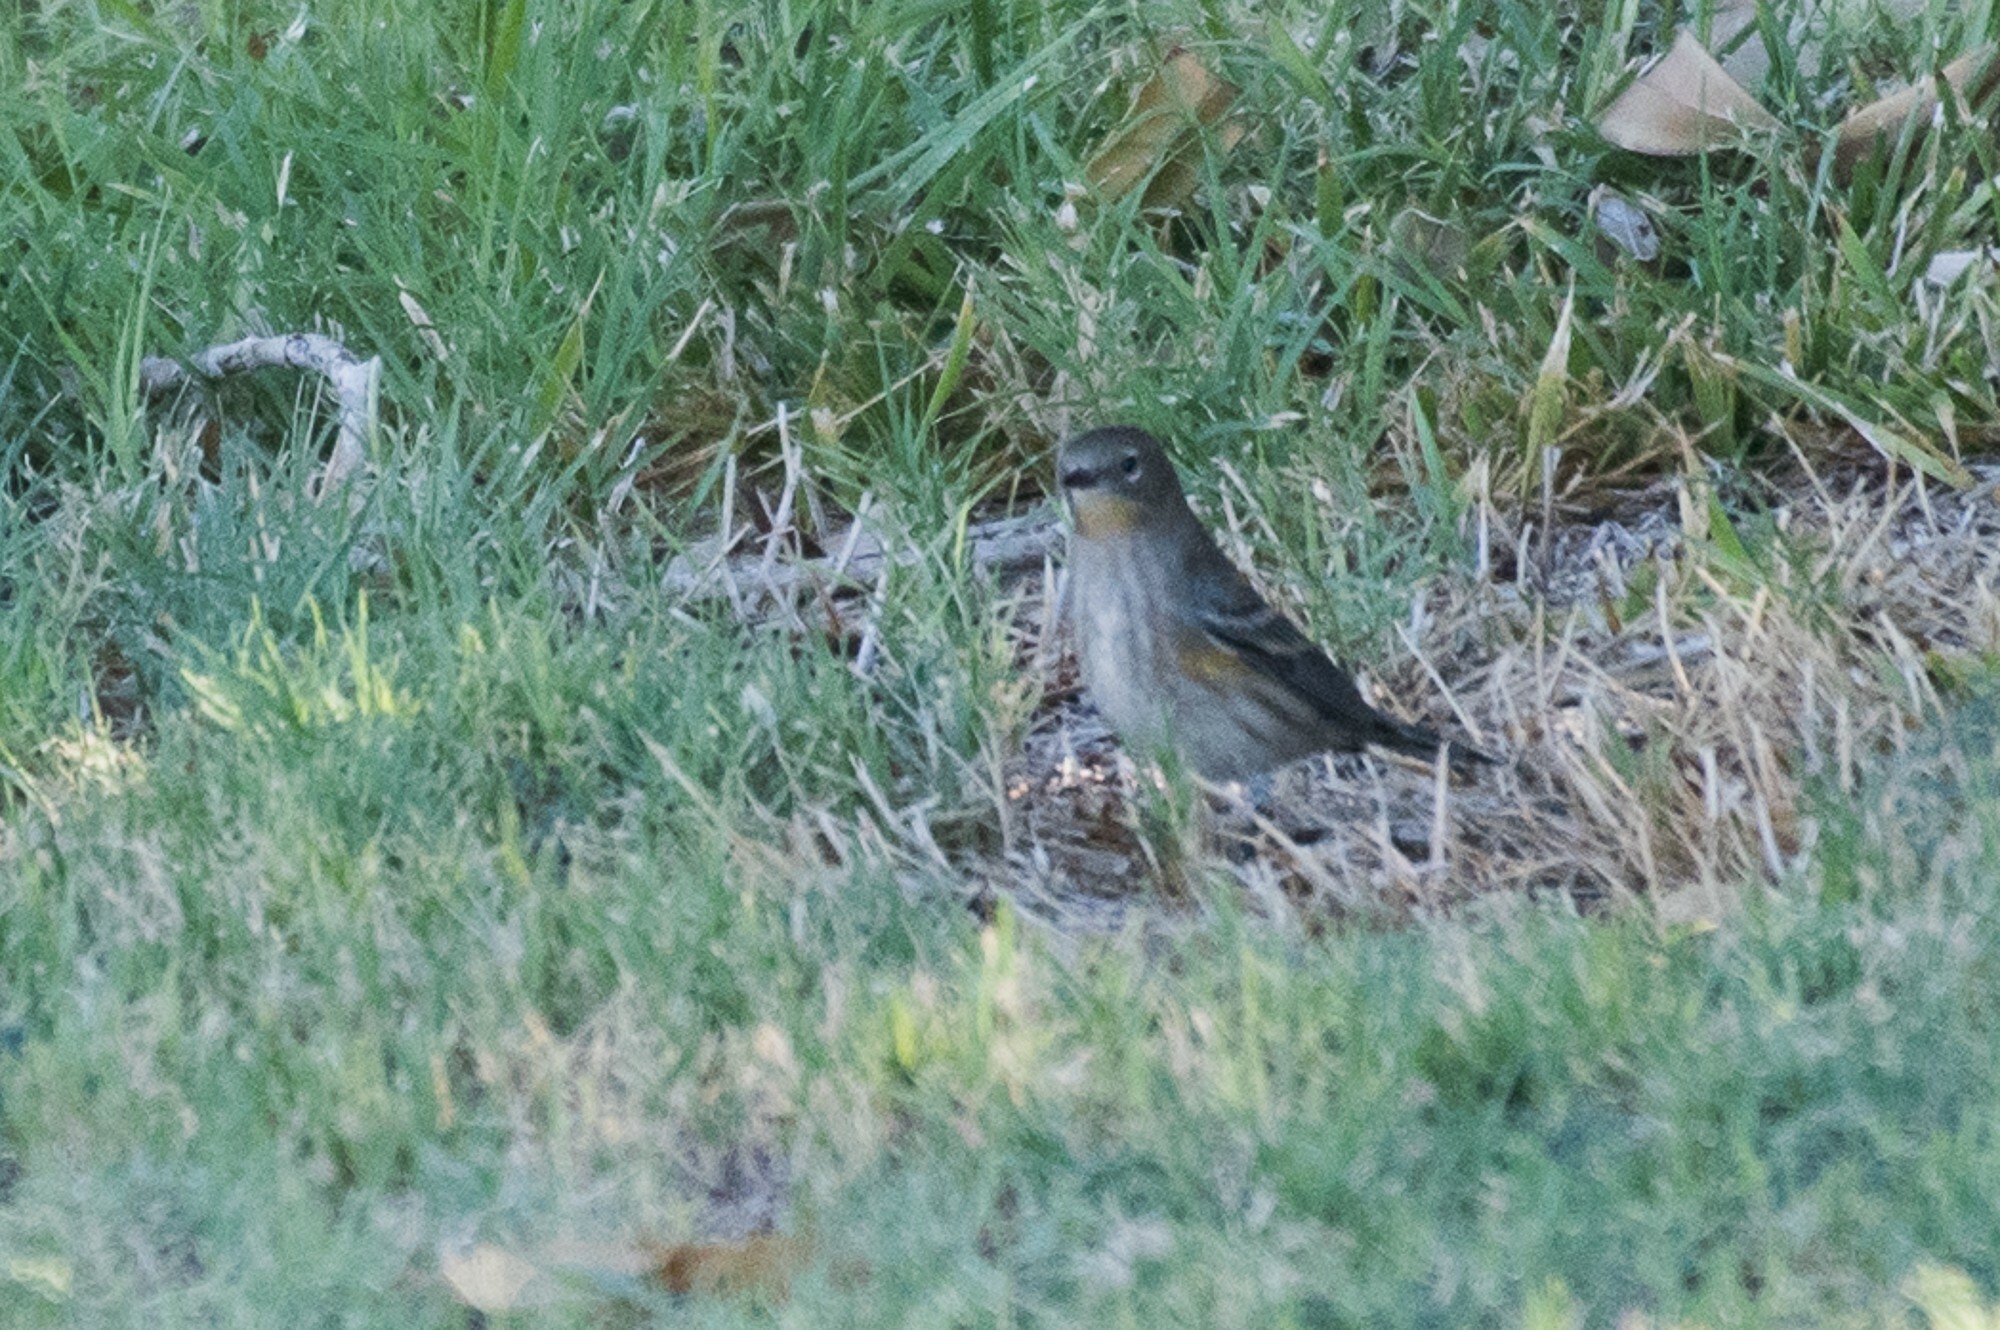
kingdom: Animalia
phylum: Chordata
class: Aves
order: Passeriformes
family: Parulidae
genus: Setophaga
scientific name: Setophaga coronata
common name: Myrtle warbler
